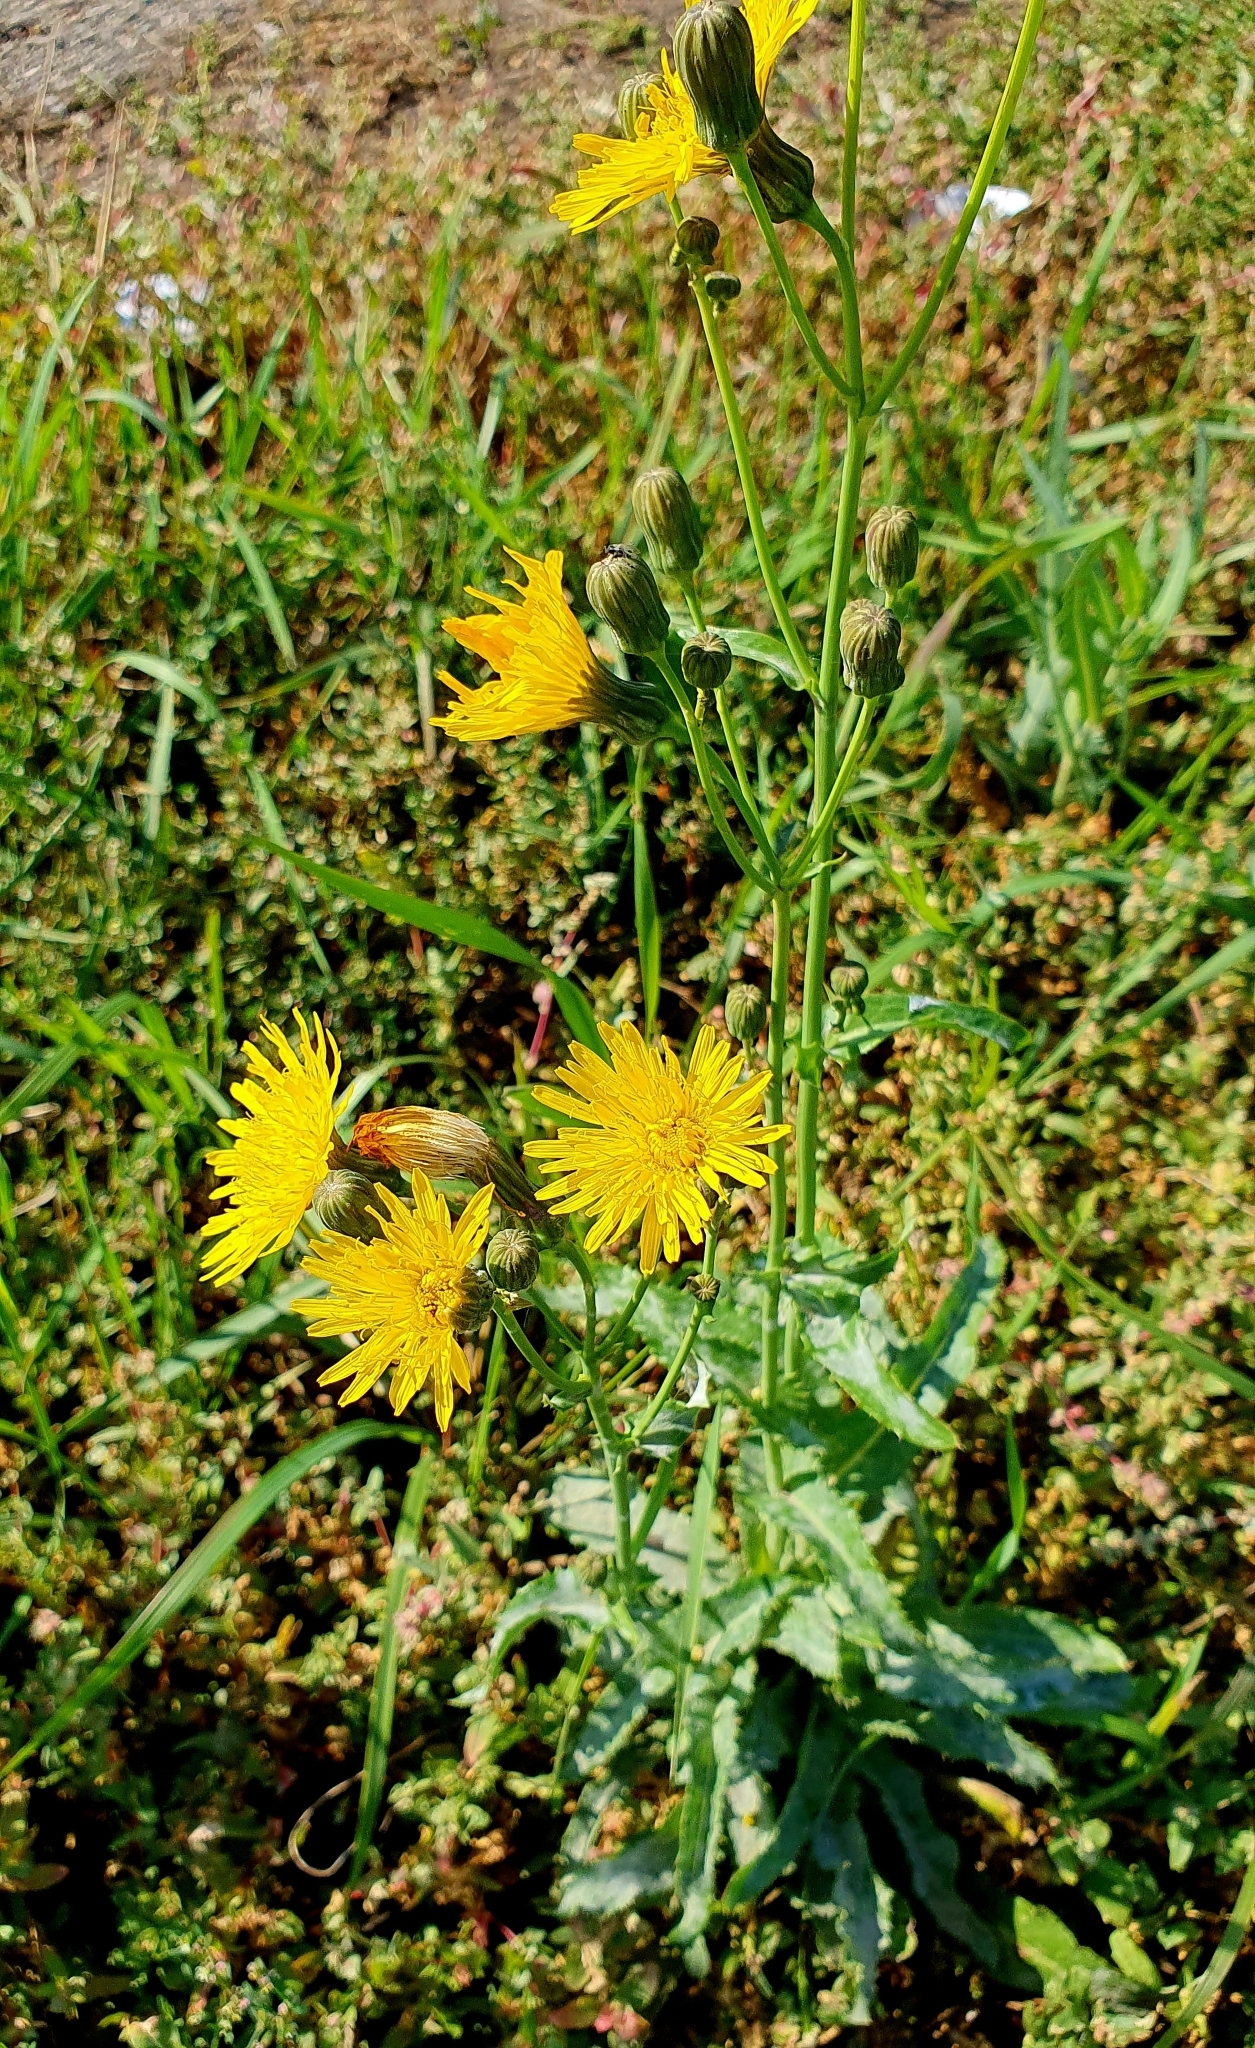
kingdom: Plantae
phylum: Tracheophyta
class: Magnoliopsida
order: Asterales
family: Asteraceae
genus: Sonchus
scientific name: Sonchus arvensis
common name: Perennial sow-thistle
